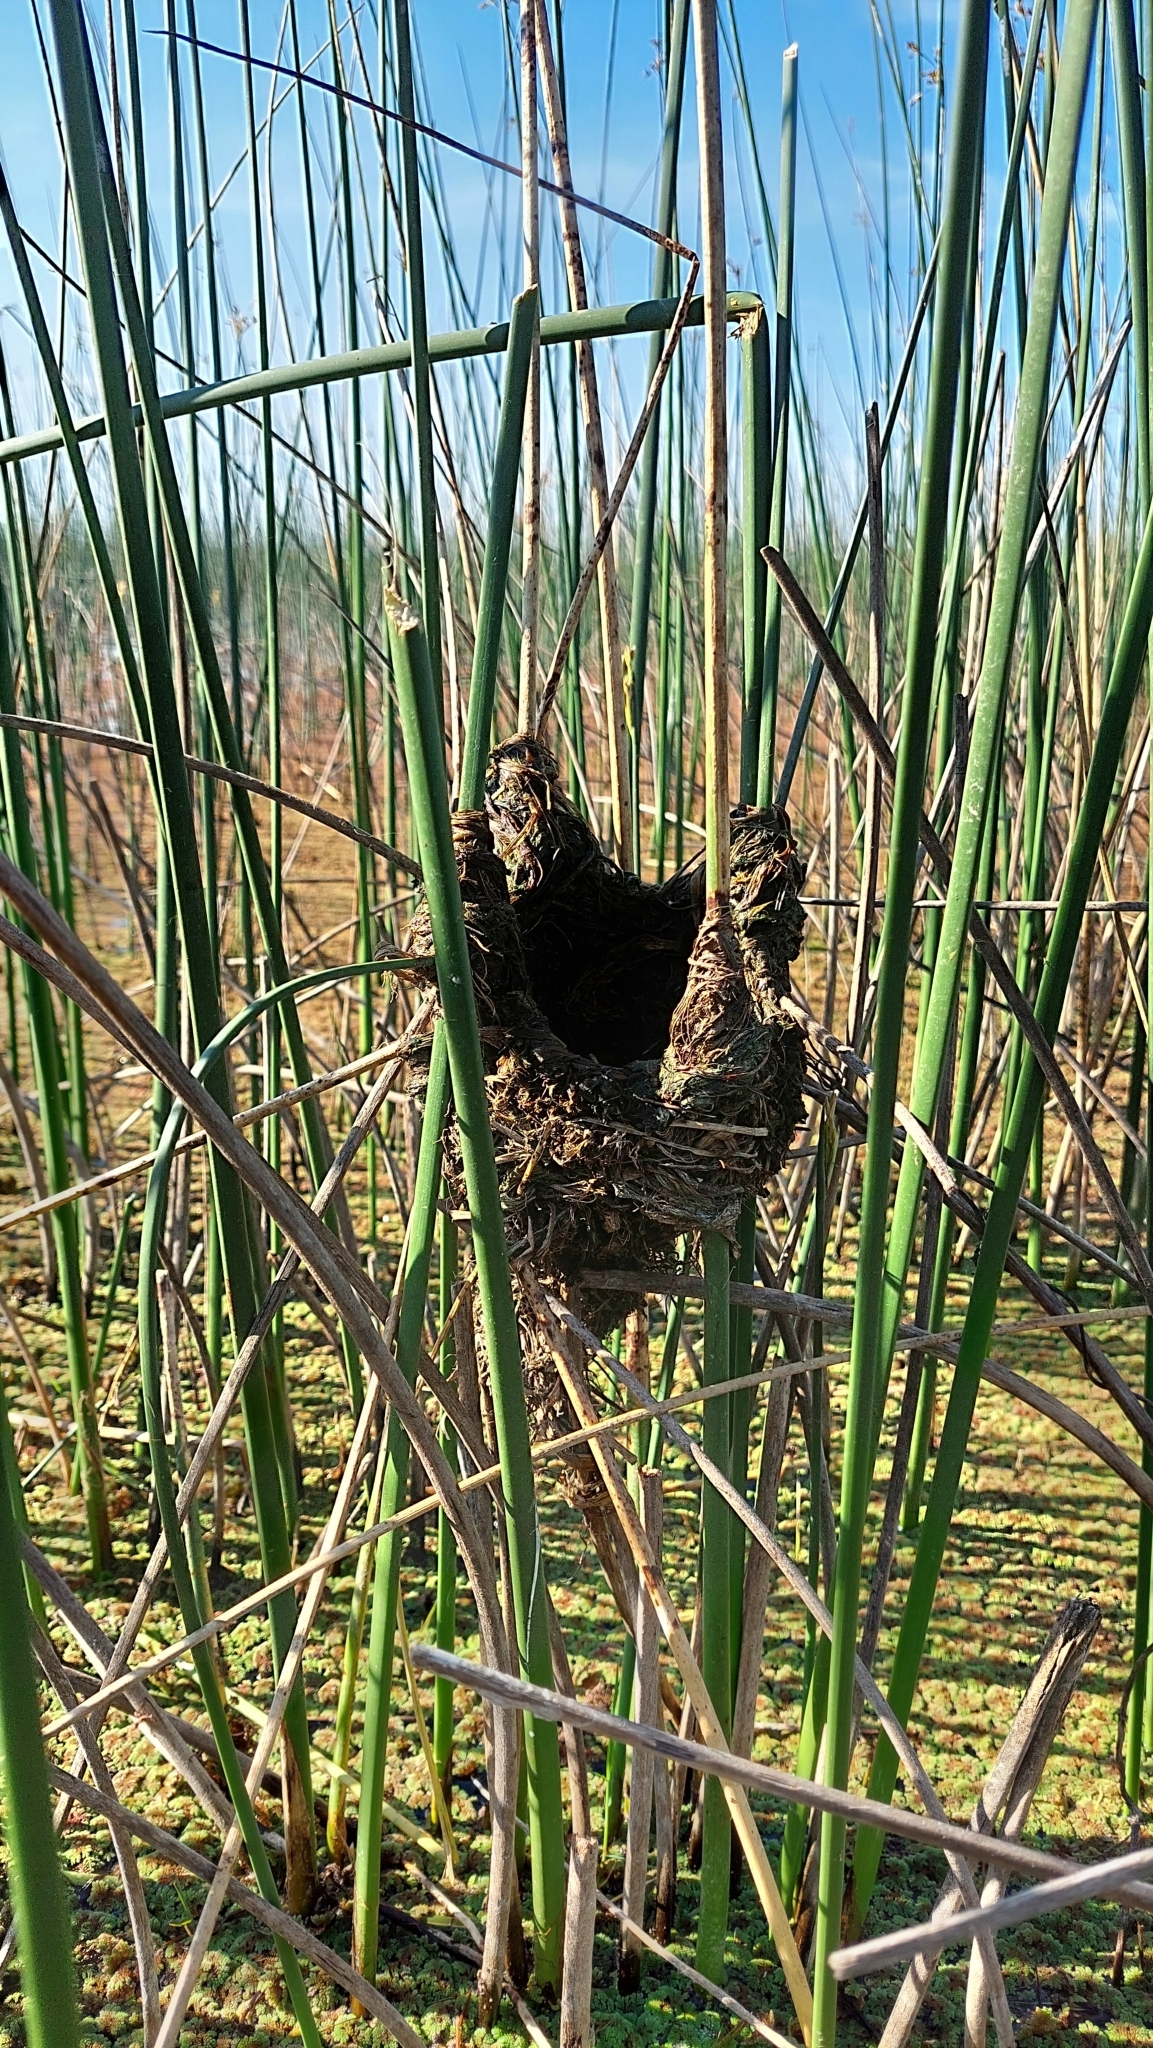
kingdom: Animalia
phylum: Chordata
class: Aves
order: Passeriformes
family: Furnariidae
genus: Phleocryptes
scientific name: Phleocryptes melanops
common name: Wren-like rushbird
